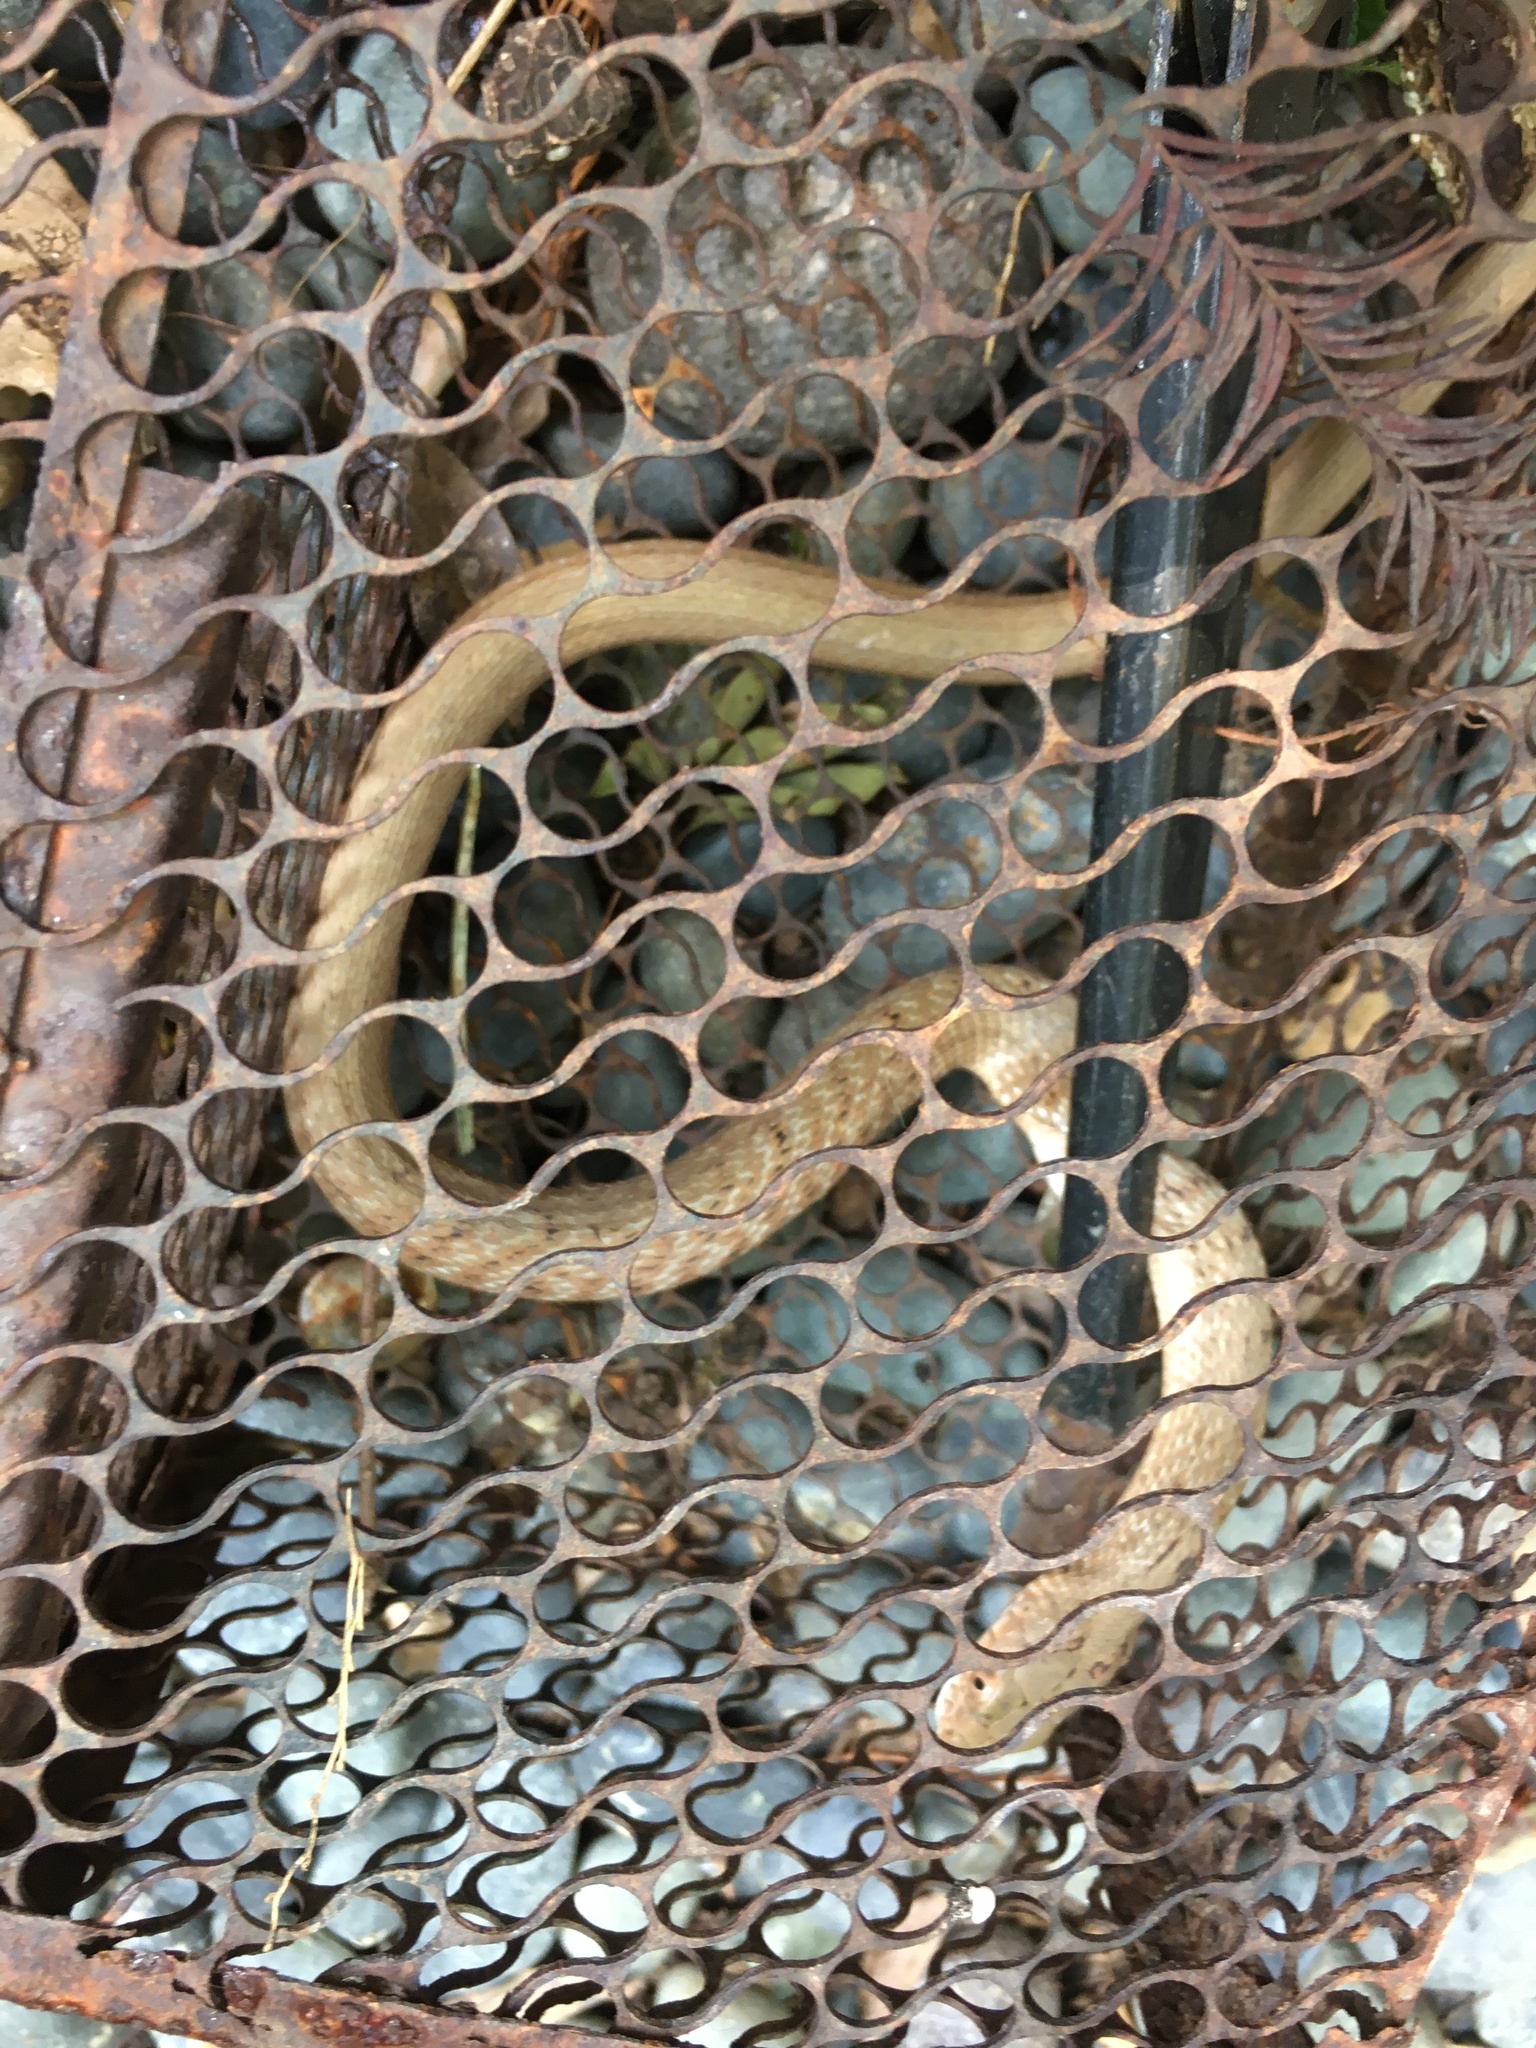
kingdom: Animalia
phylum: Chordata
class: Squamata
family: Colubridae
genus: Elaphe
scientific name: Elaphe carinata
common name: Taiwan stink snake
